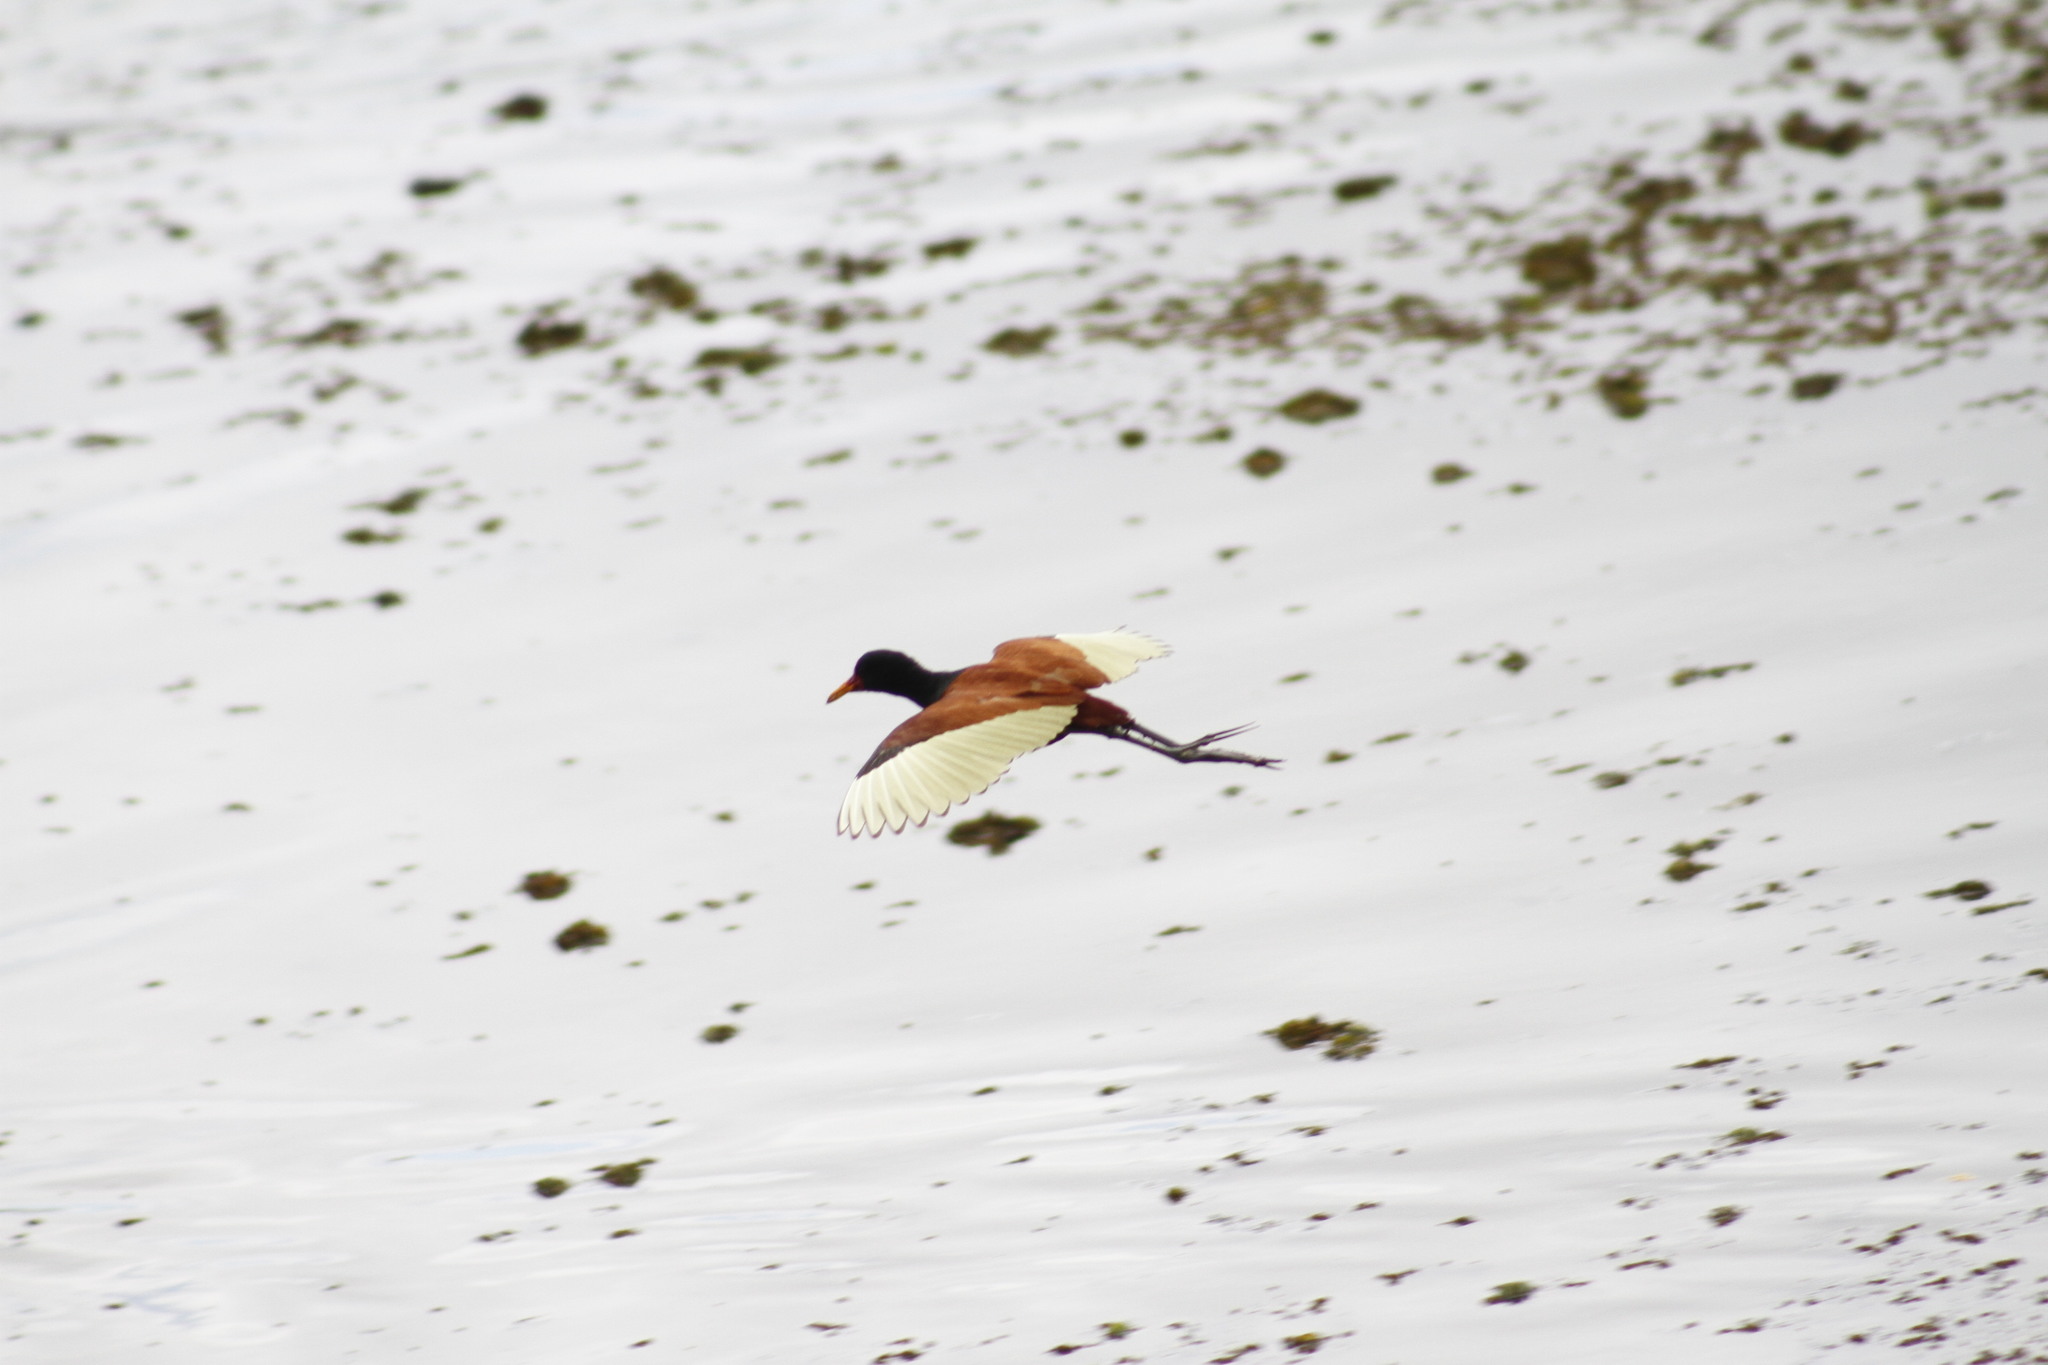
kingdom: Animalia
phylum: Chordata
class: Aves
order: Charadriiformes
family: Jacanidae
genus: Jacana
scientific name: Jacana jacana
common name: Wattled jacana
